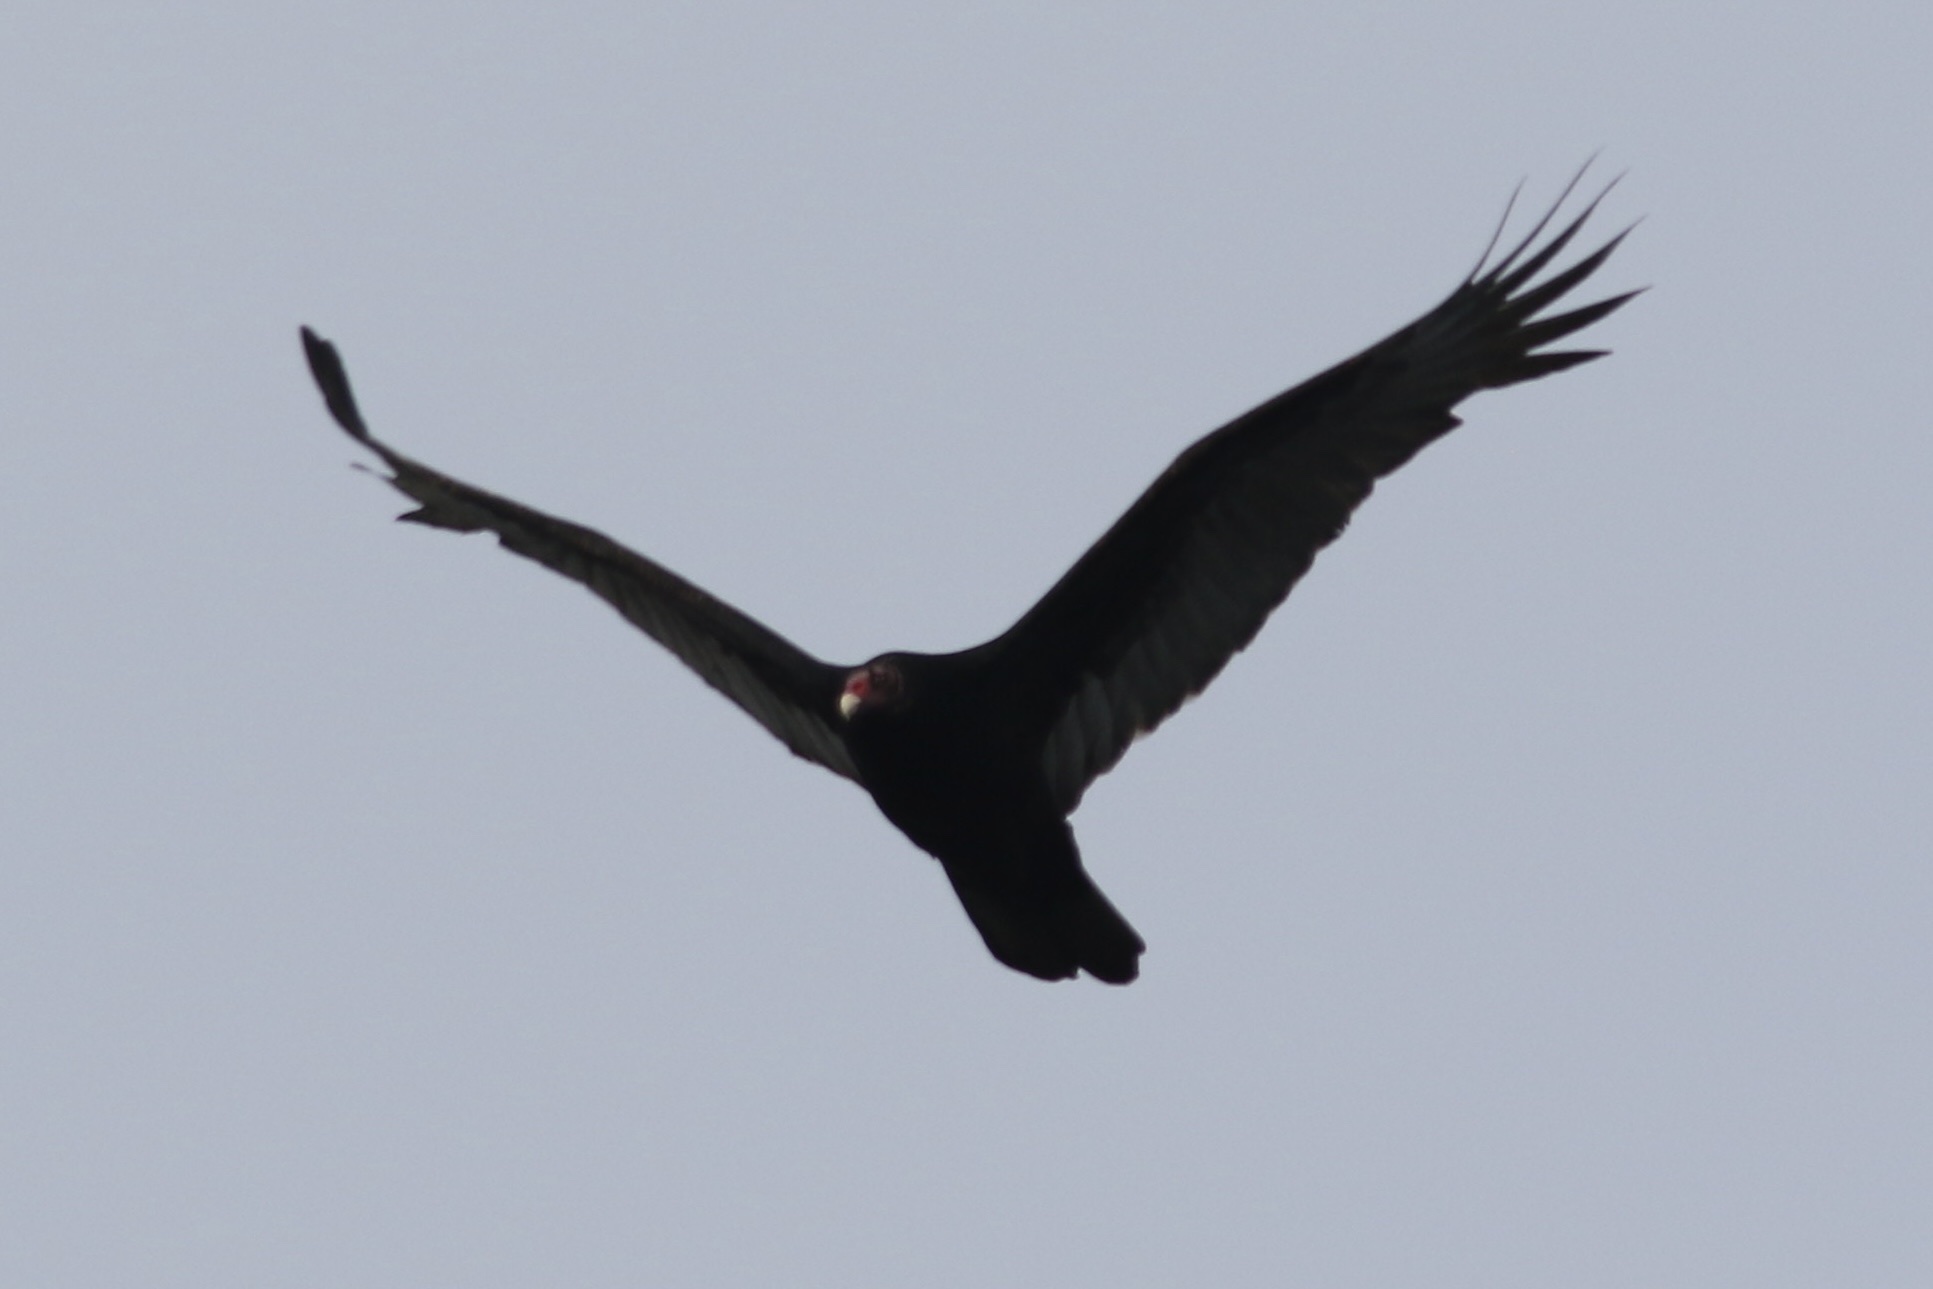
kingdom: Animalia
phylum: Chordata
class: Aves
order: Accipitriformes
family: Cathartidae
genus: Cathartes
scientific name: Cathartes aura
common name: Turkey vulture
